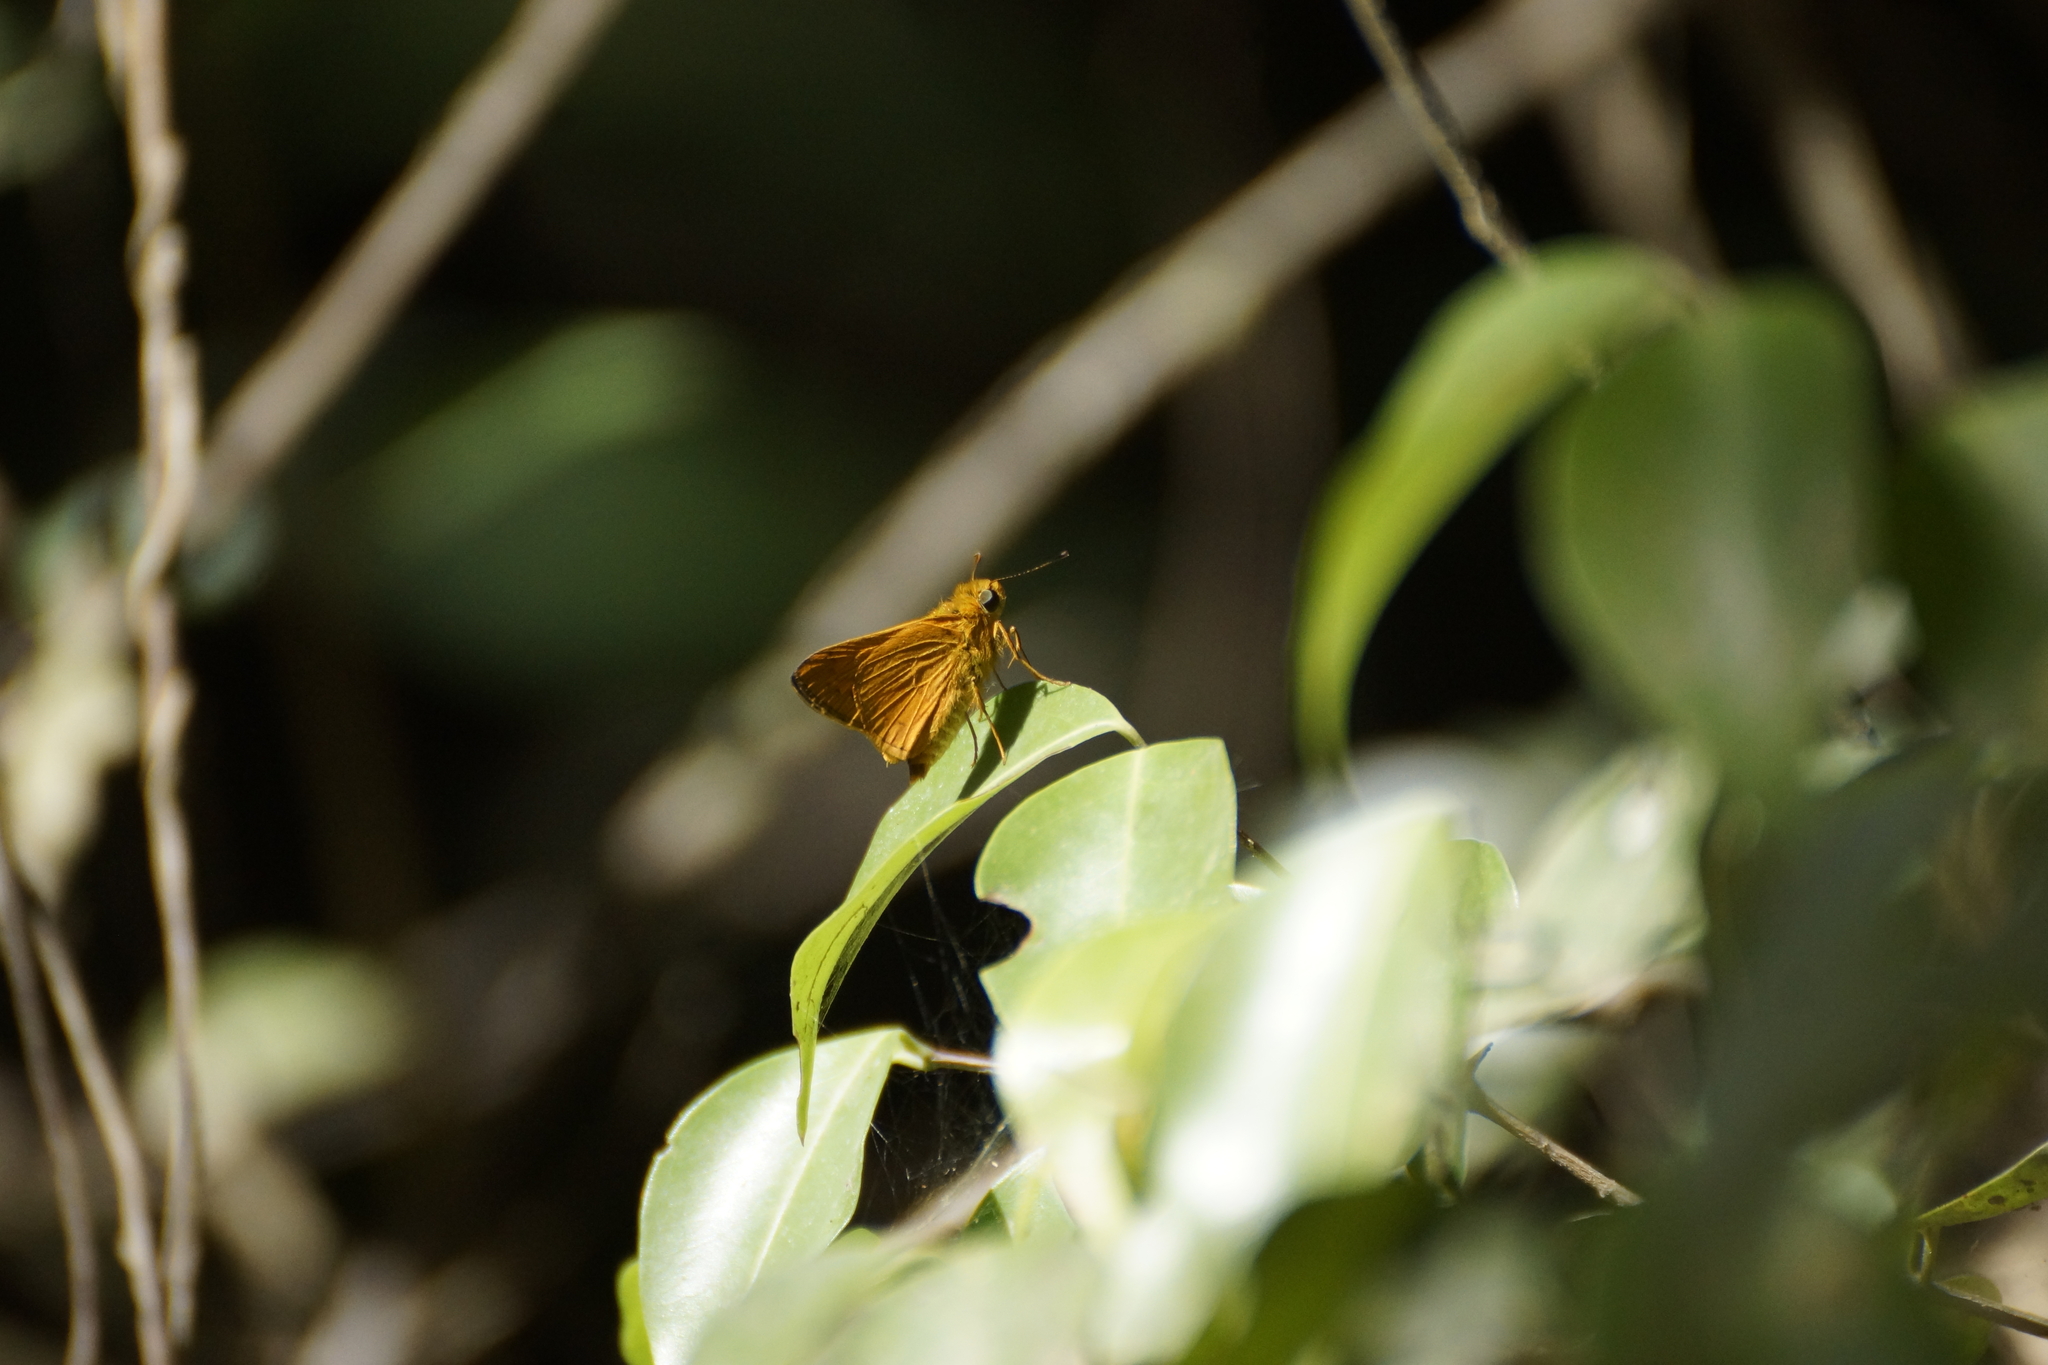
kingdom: Animalia
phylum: Arthropoda
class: Insecta
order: Lepidoptera
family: Hesperiidae
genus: Telicota
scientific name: Telicota augias
